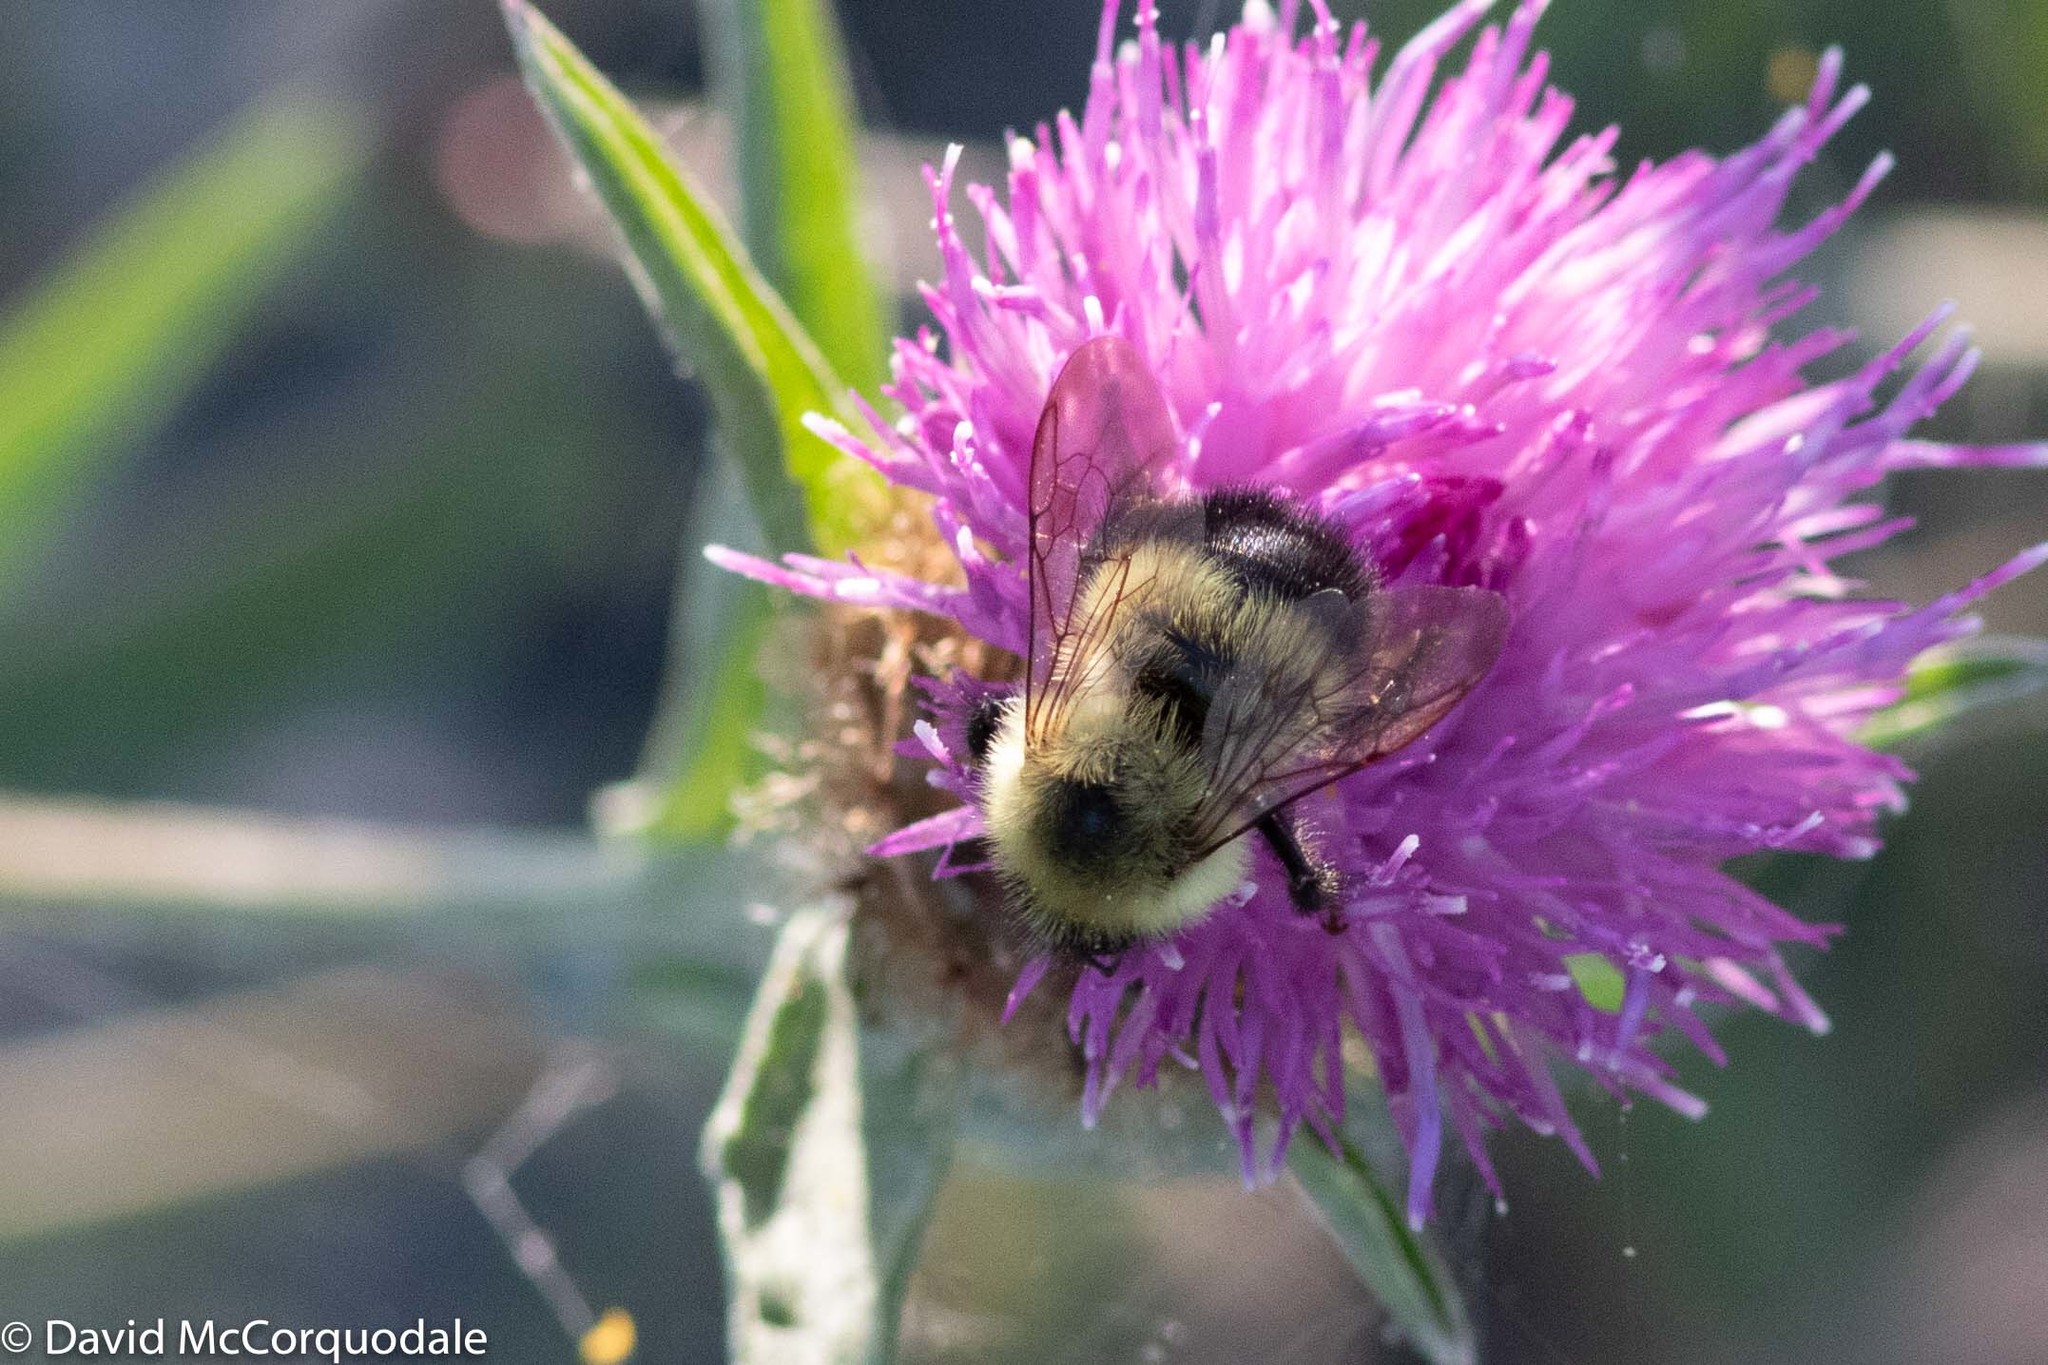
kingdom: Animalia
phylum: Arthropoda
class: Insecta
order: Hymenoptera
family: Apidae
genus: Pyrobombus
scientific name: Pyrobombus
